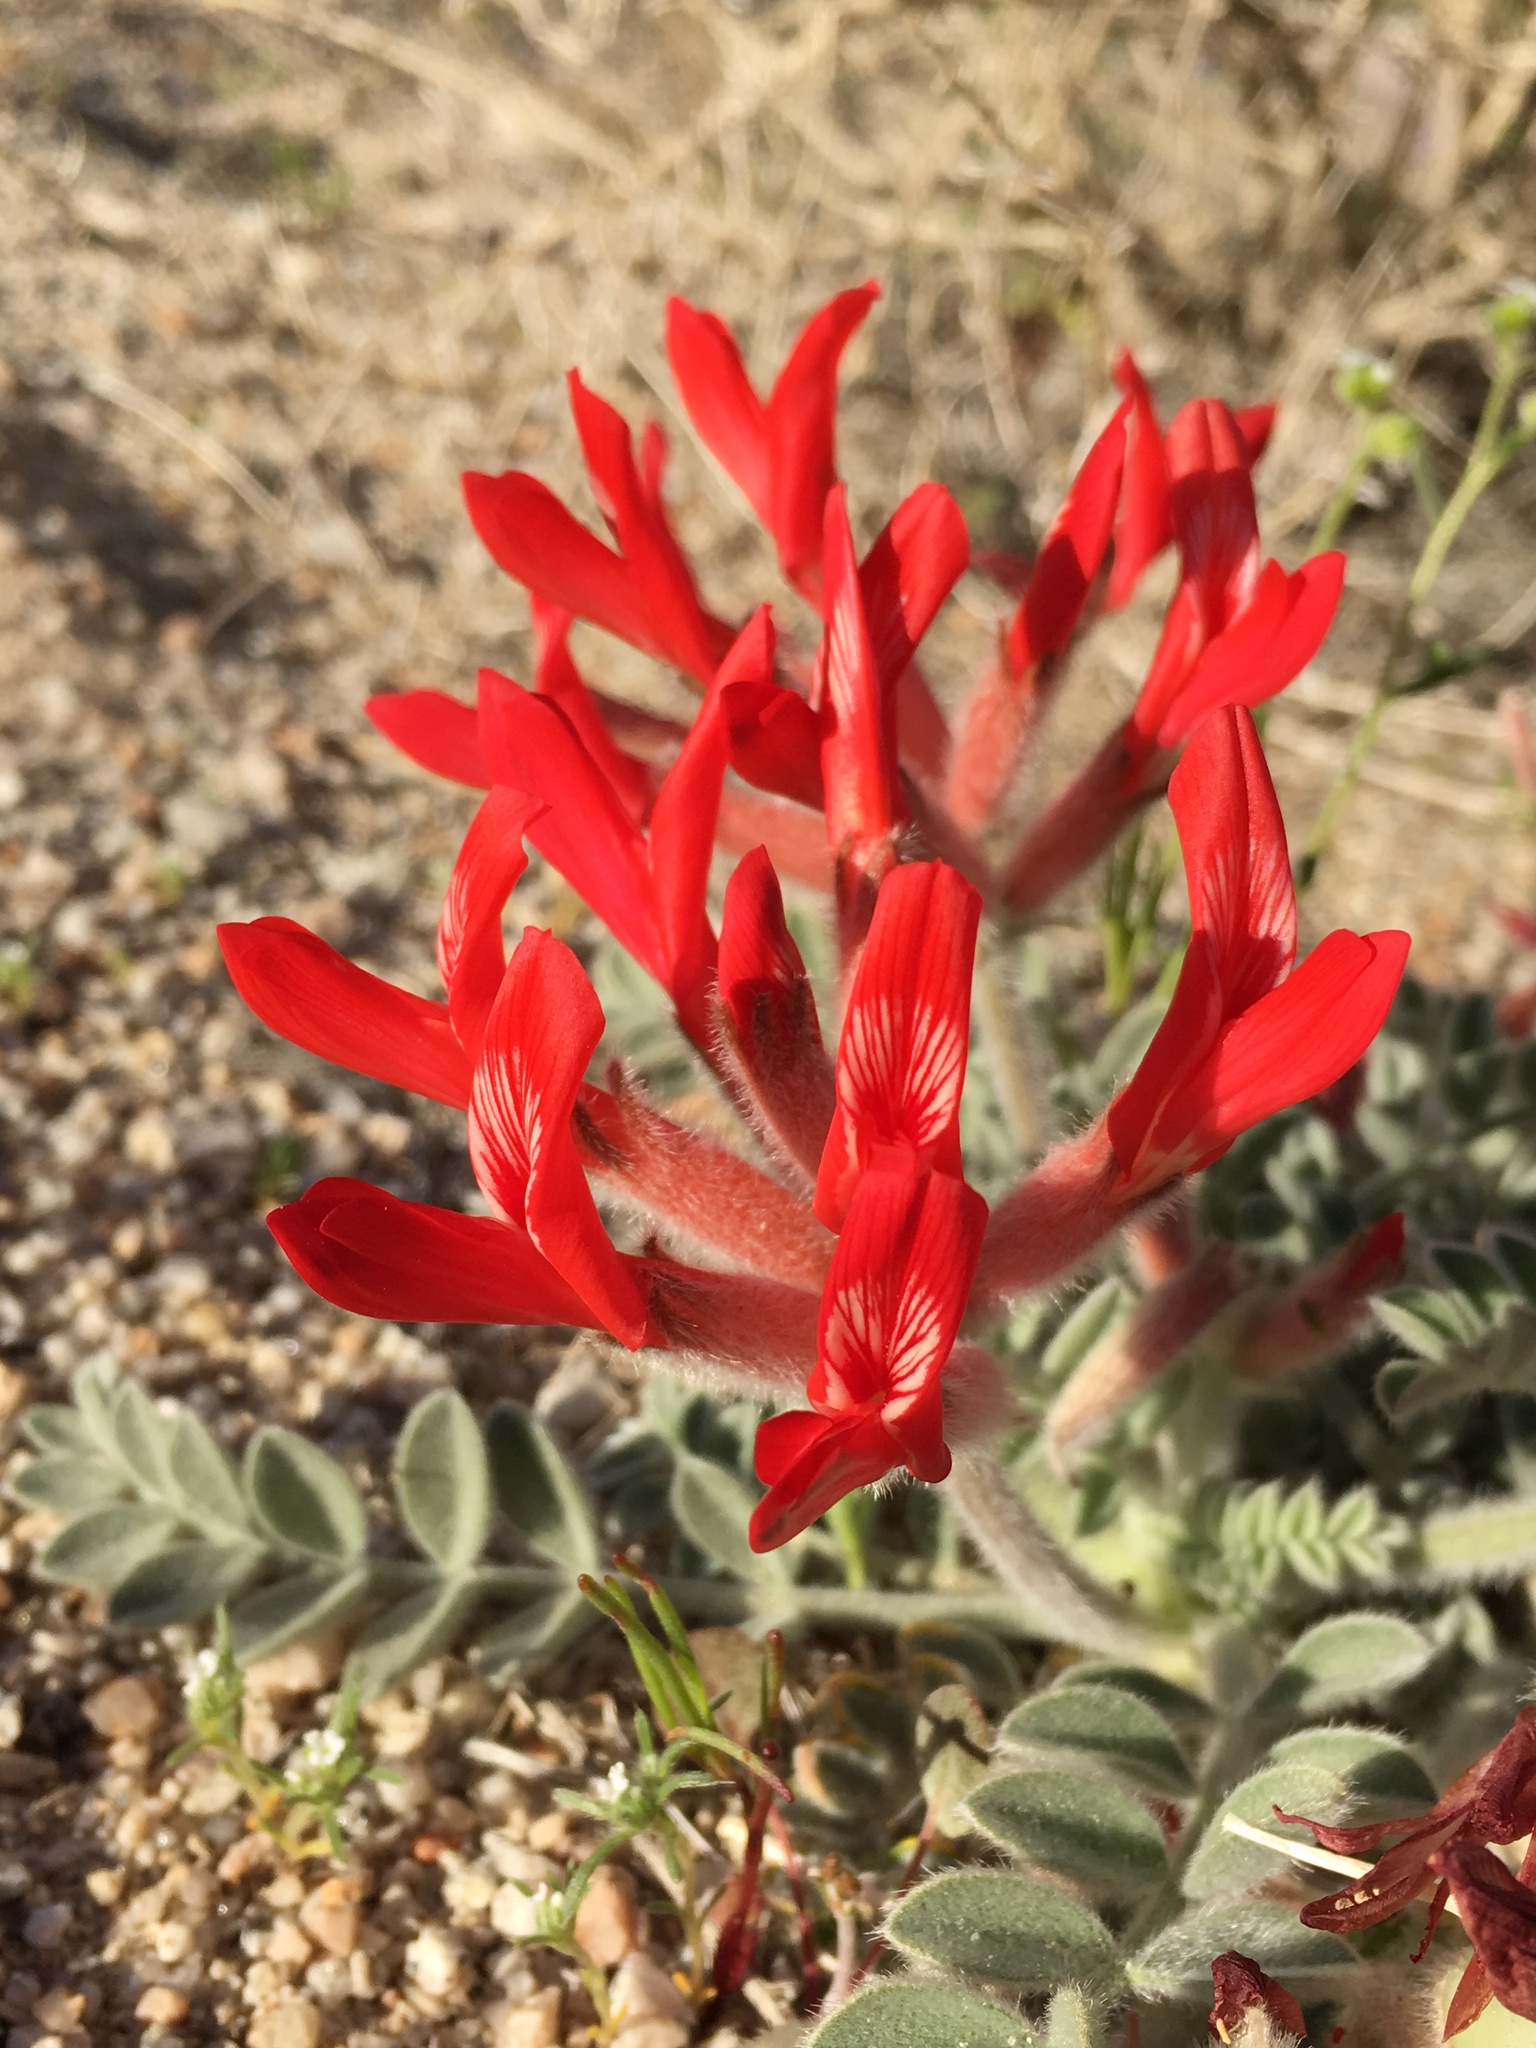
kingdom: Plantae
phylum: Tracheophyta
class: Magnoliopsida
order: Fabales
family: Fabaceae
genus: Astragalus
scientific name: Astragalus coccineus
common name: Scarlet milk-vetch
